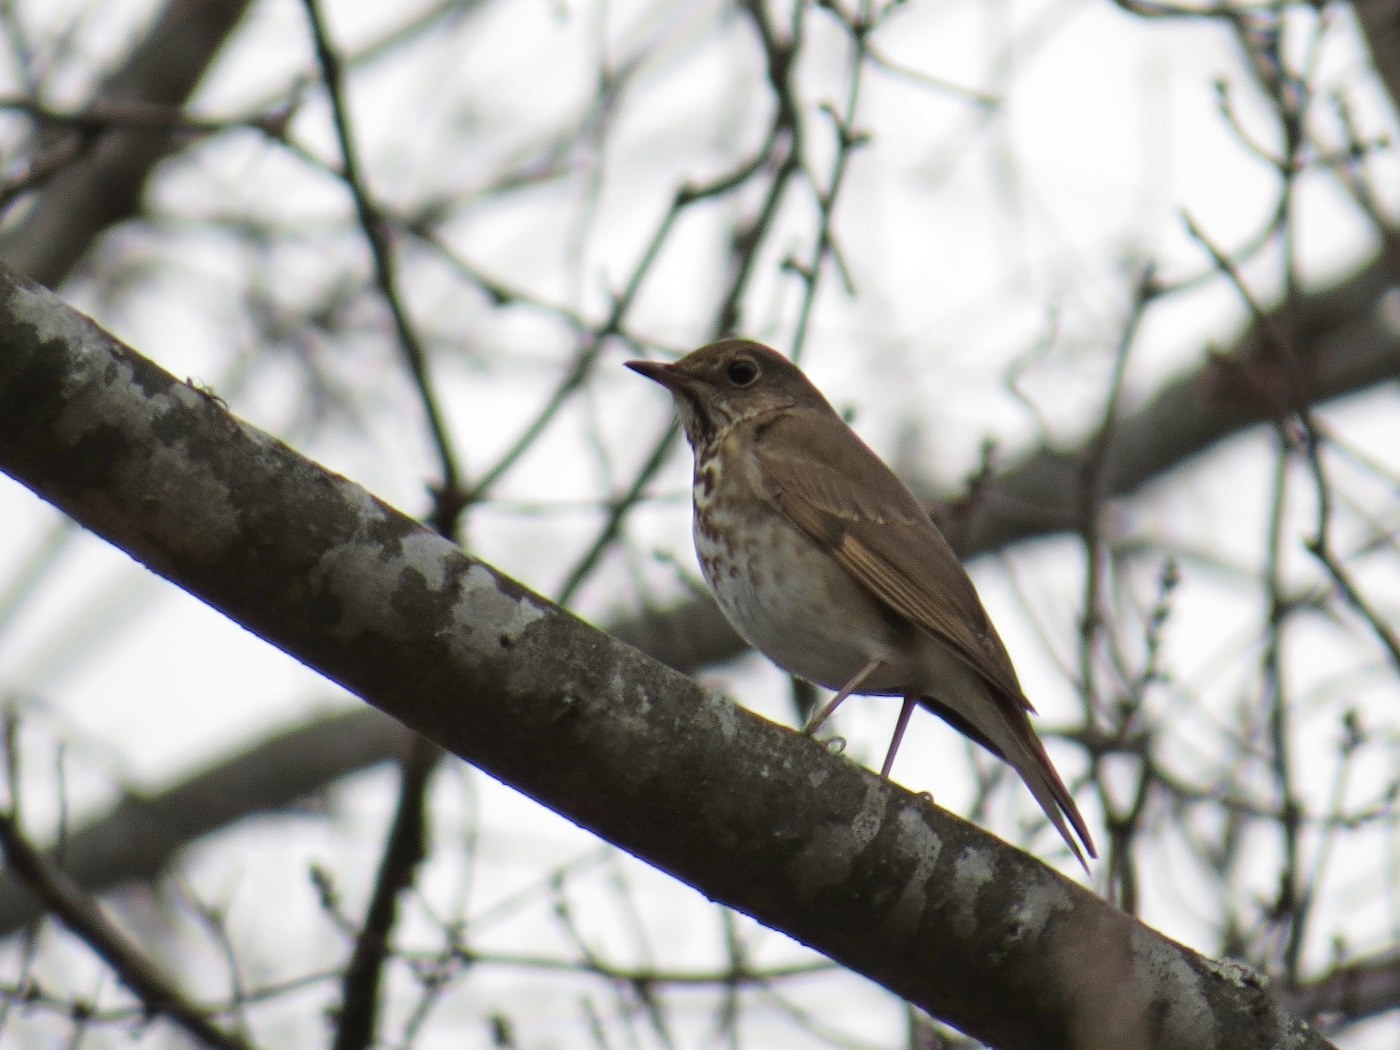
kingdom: Animalia
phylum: Chordata
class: Aves
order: Passeriformes
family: Turdidae
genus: Catharus
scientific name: Catharus guttatus
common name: Hermit thrush
